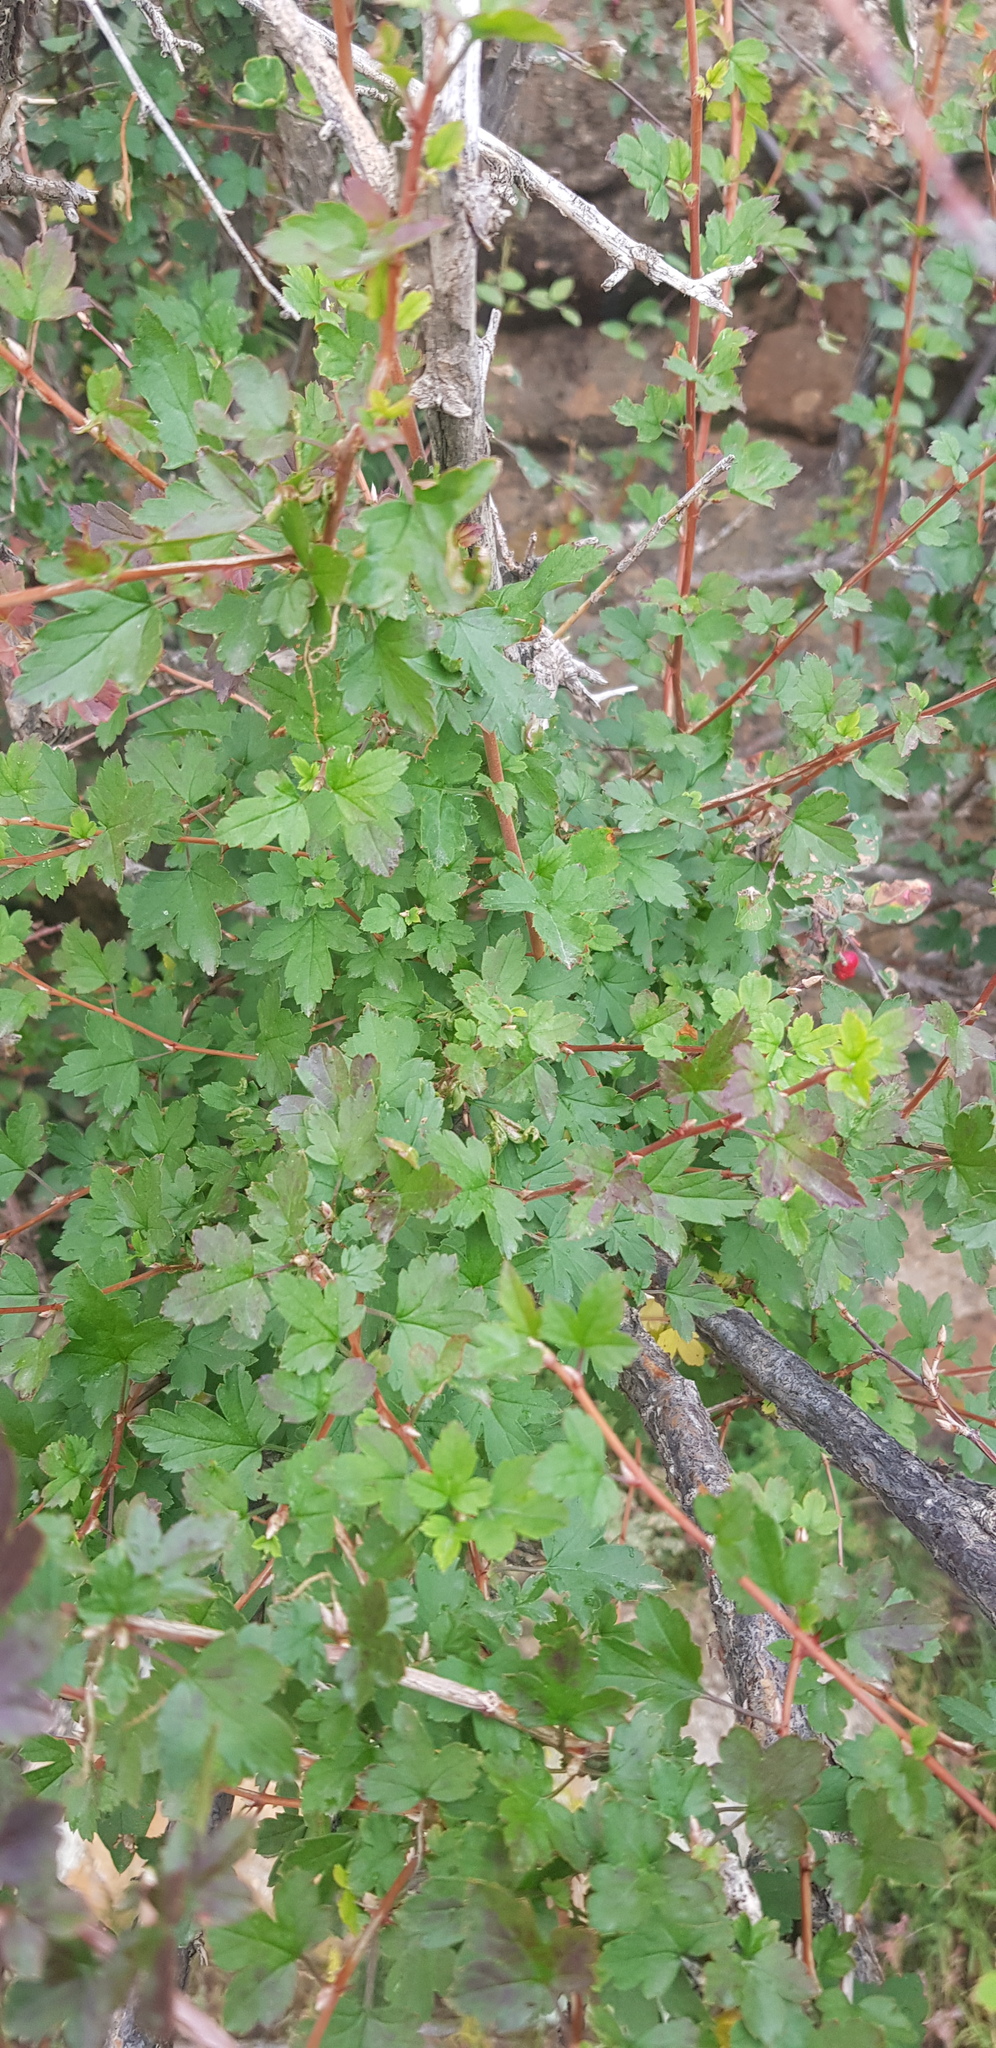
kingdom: Plantae
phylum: Tracheophyta
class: Magnoliopsida
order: Saxifragales
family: Grossulariaceae
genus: Ribes
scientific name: Ribes aciculare
